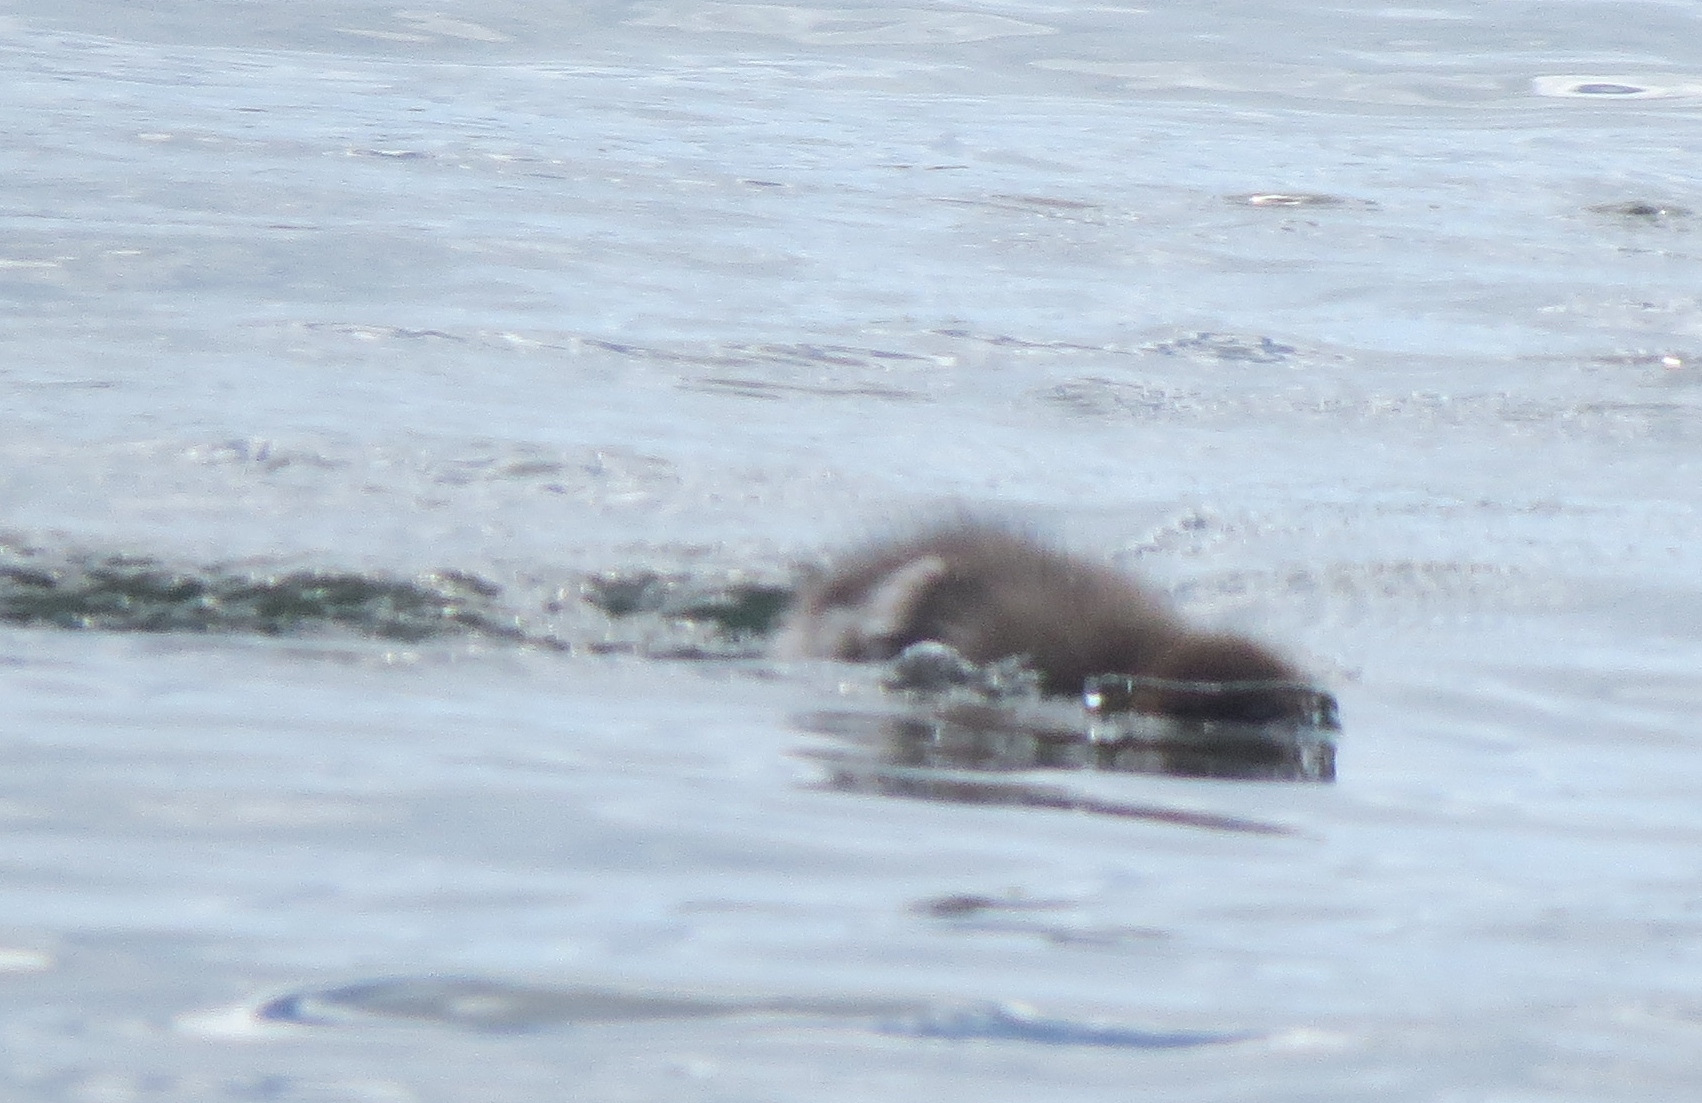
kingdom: Animalia
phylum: Chordata
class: Aves
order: Anseriformes
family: Anatidae
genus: Mergus
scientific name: Mergus serrator
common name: Red-breasted merganser
